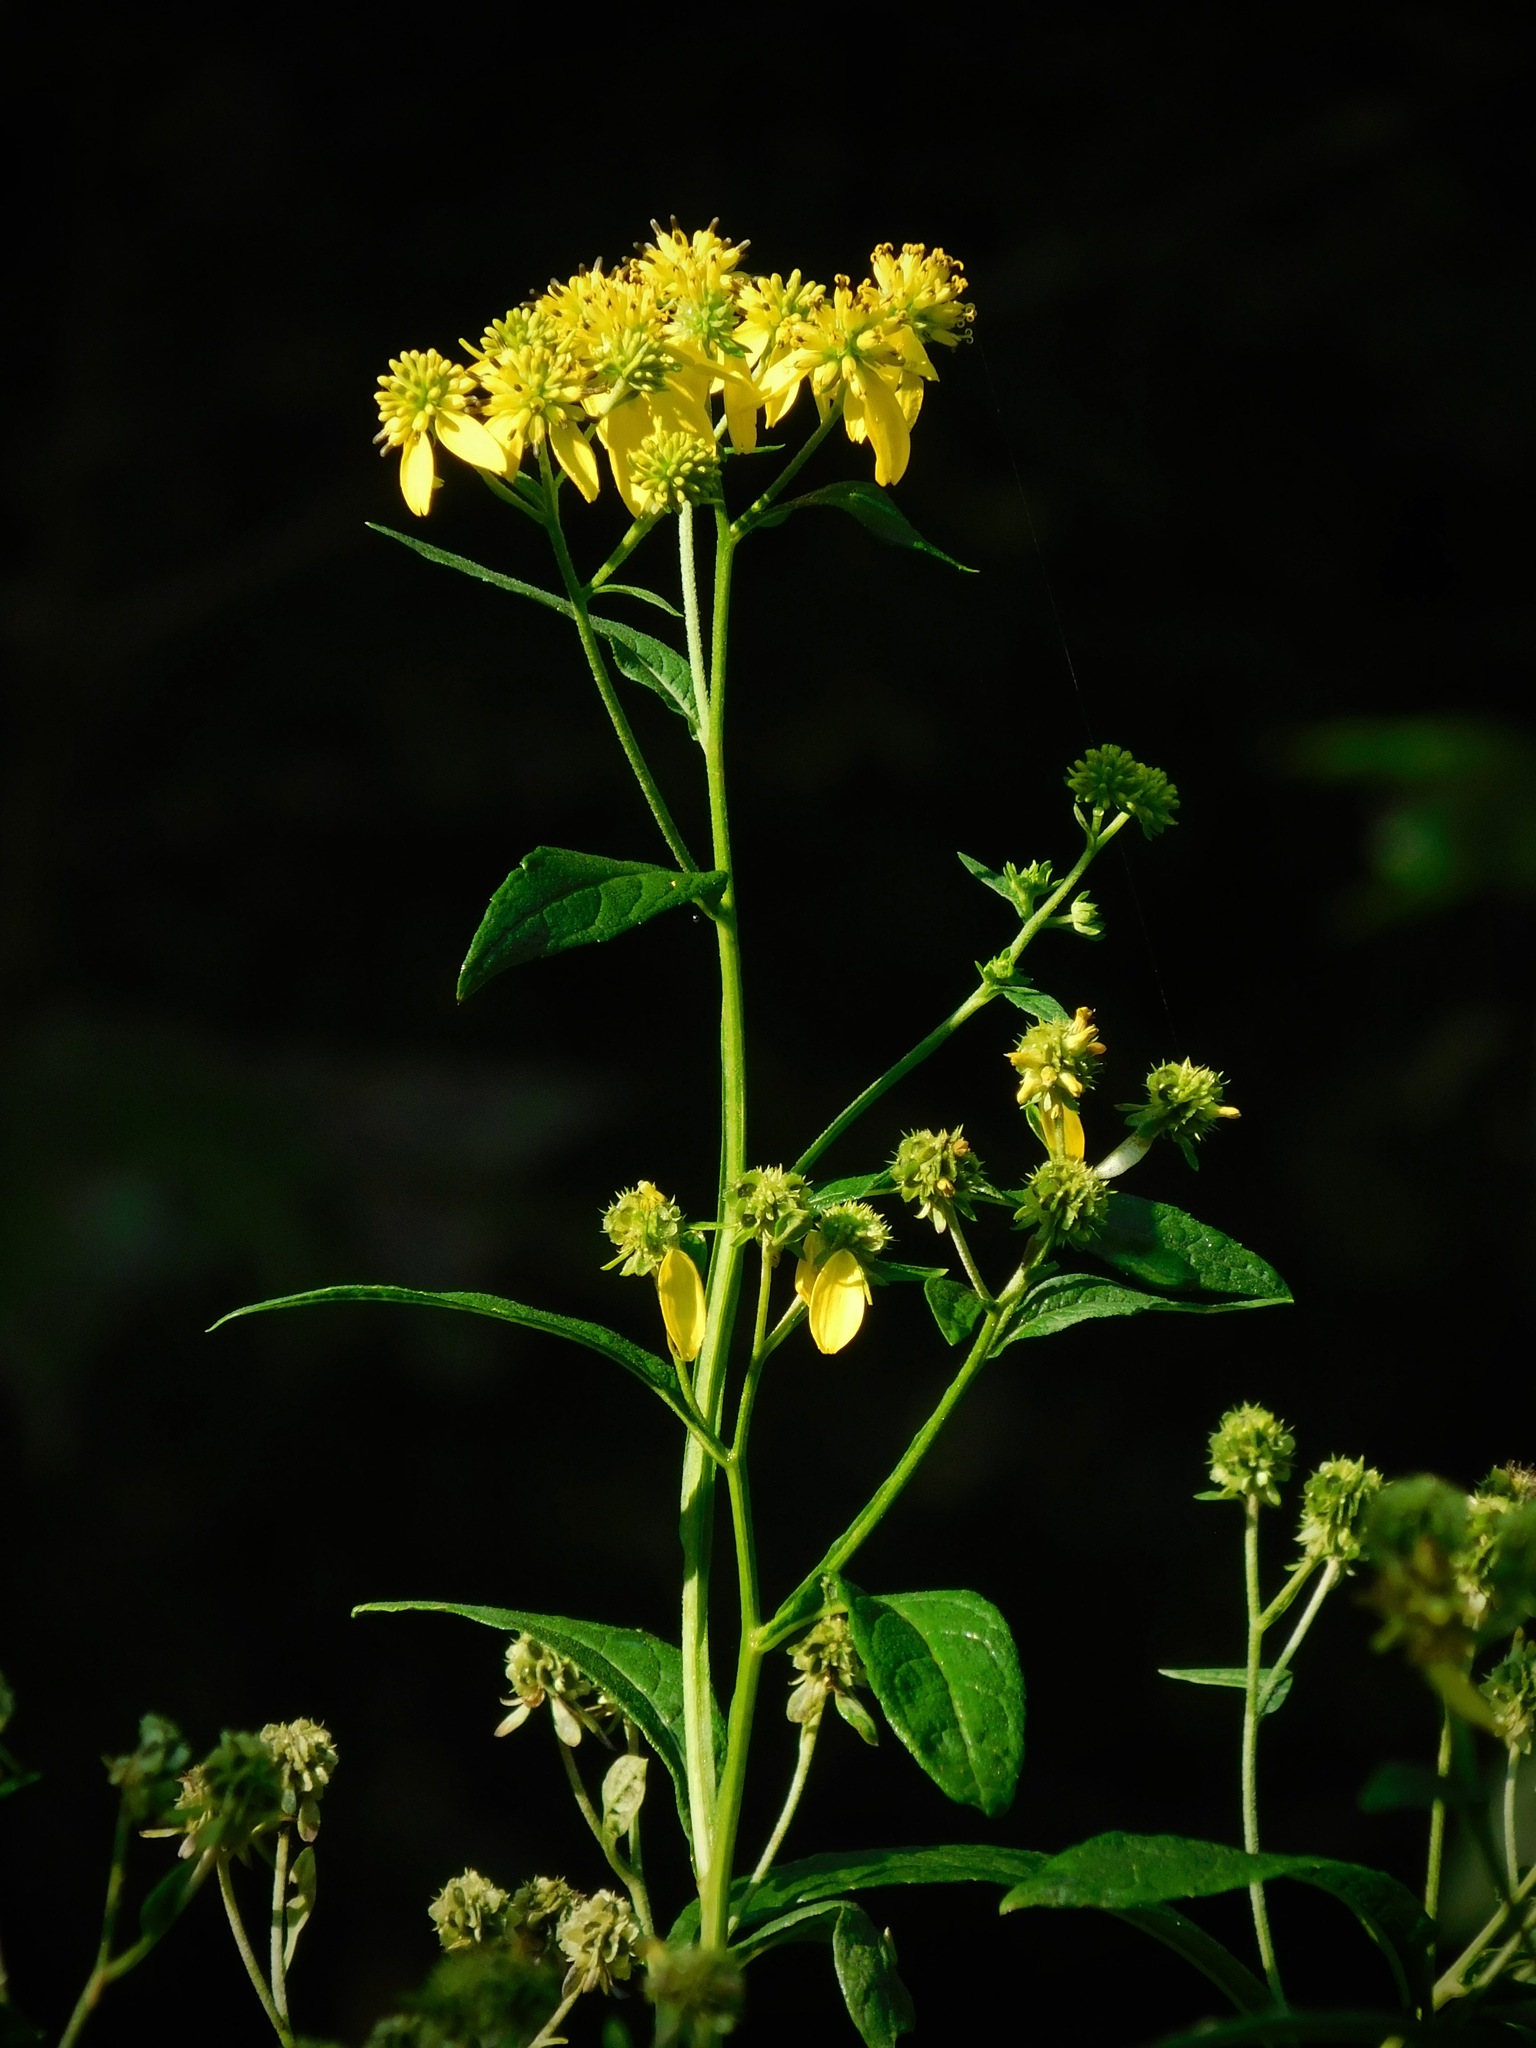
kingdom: Plantae
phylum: Tracheophyta
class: Magnoliopsida
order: Asterales
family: Asteraceae
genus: Verbesina
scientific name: Verbesina alternifolia
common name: Wingstem
